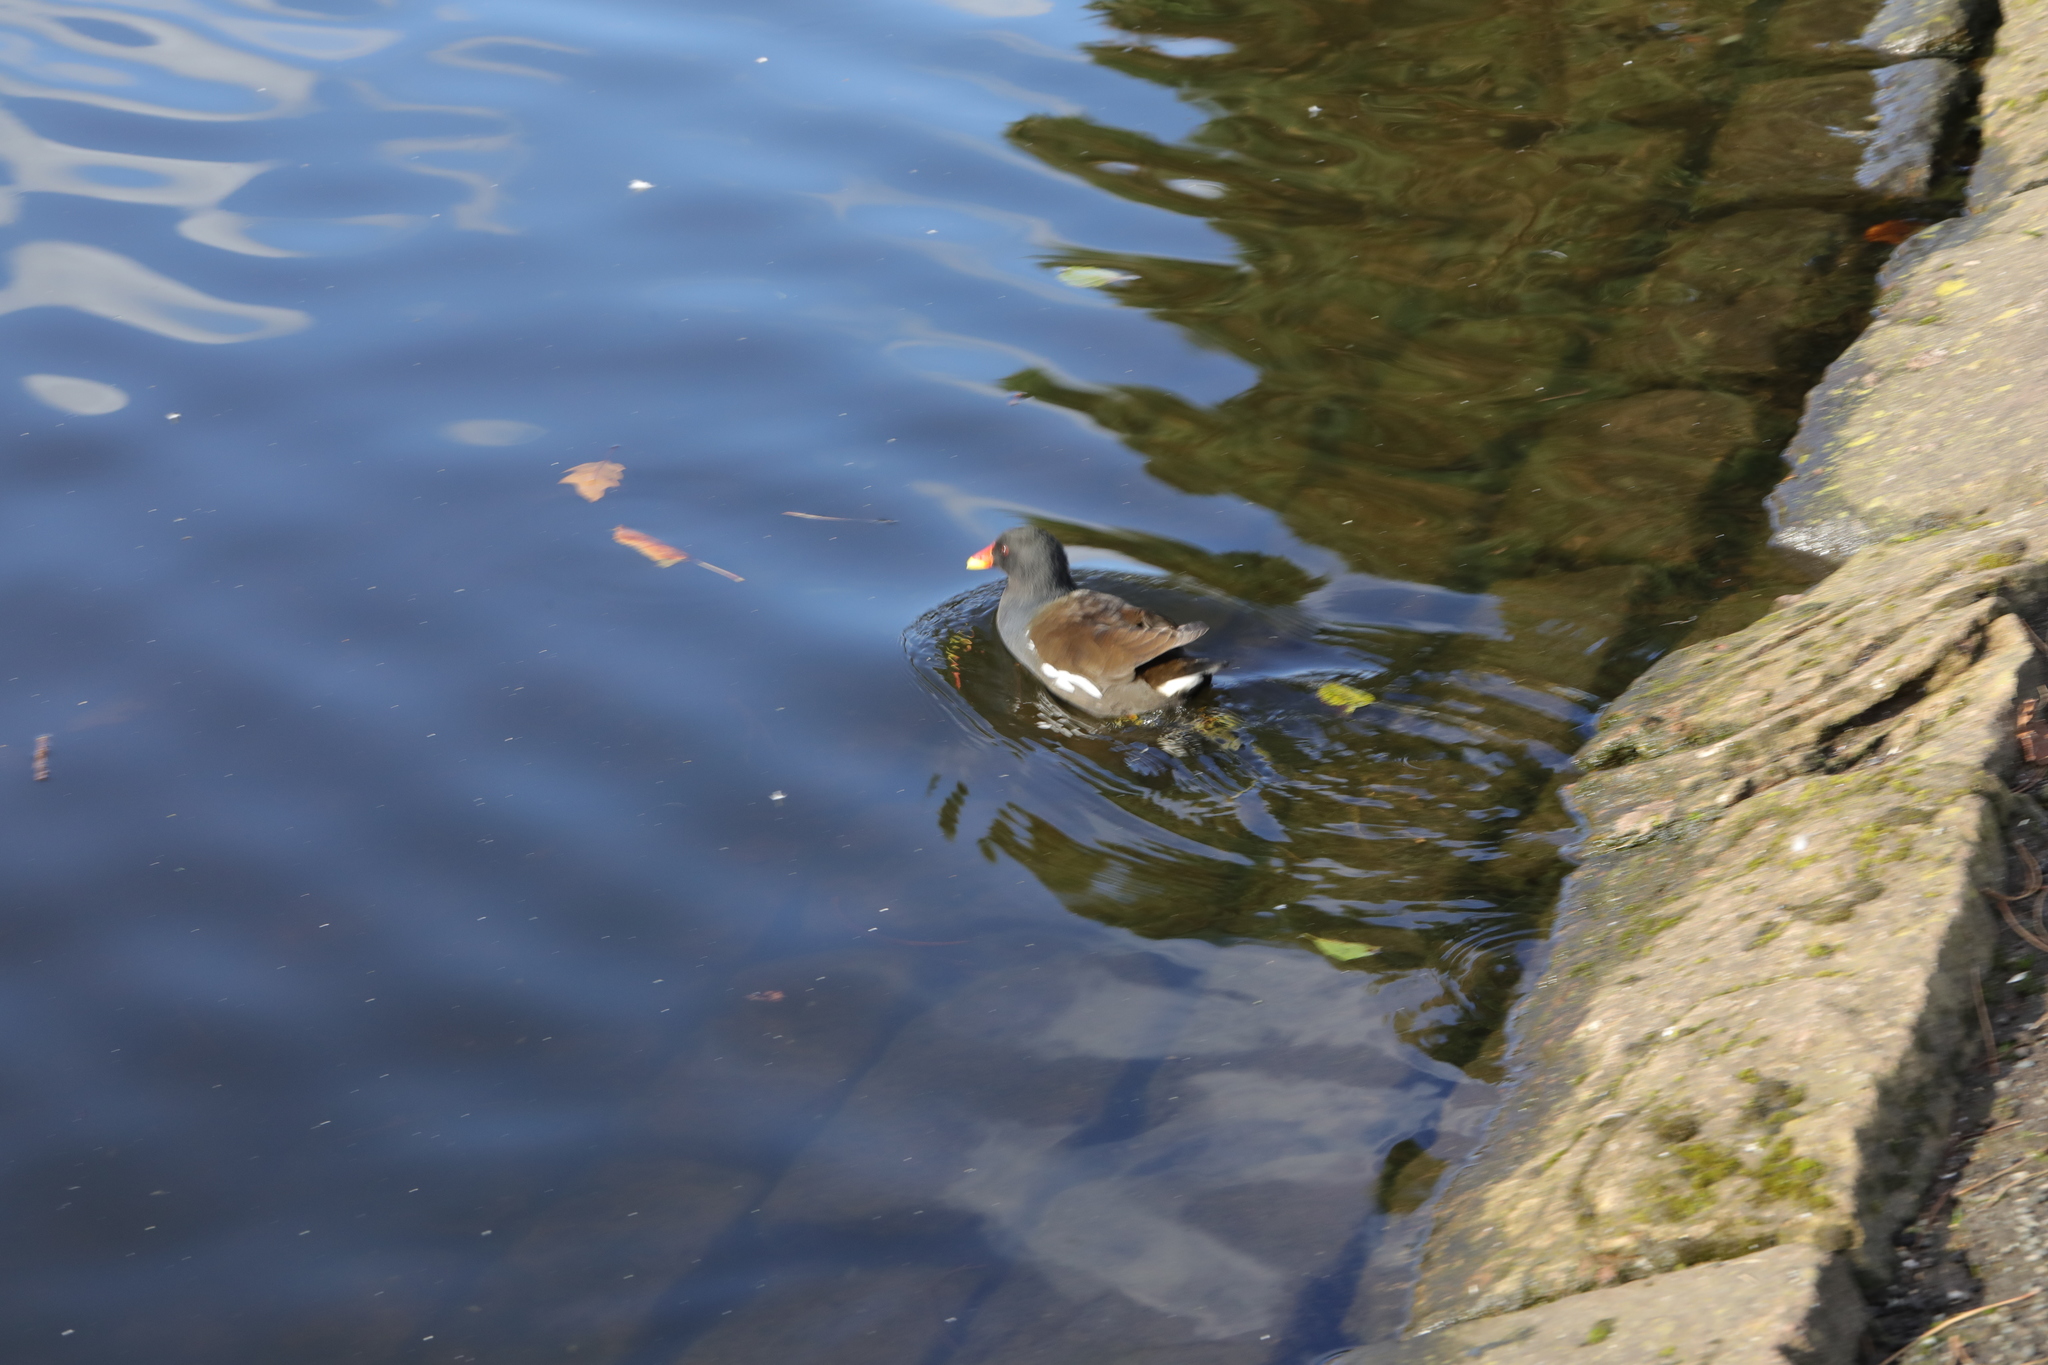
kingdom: Animalia
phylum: Chordata
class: Aves
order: Gruiformes
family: Rallidae
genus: Gallinula
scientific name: Gallinula chloropus
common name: Common moorhen
